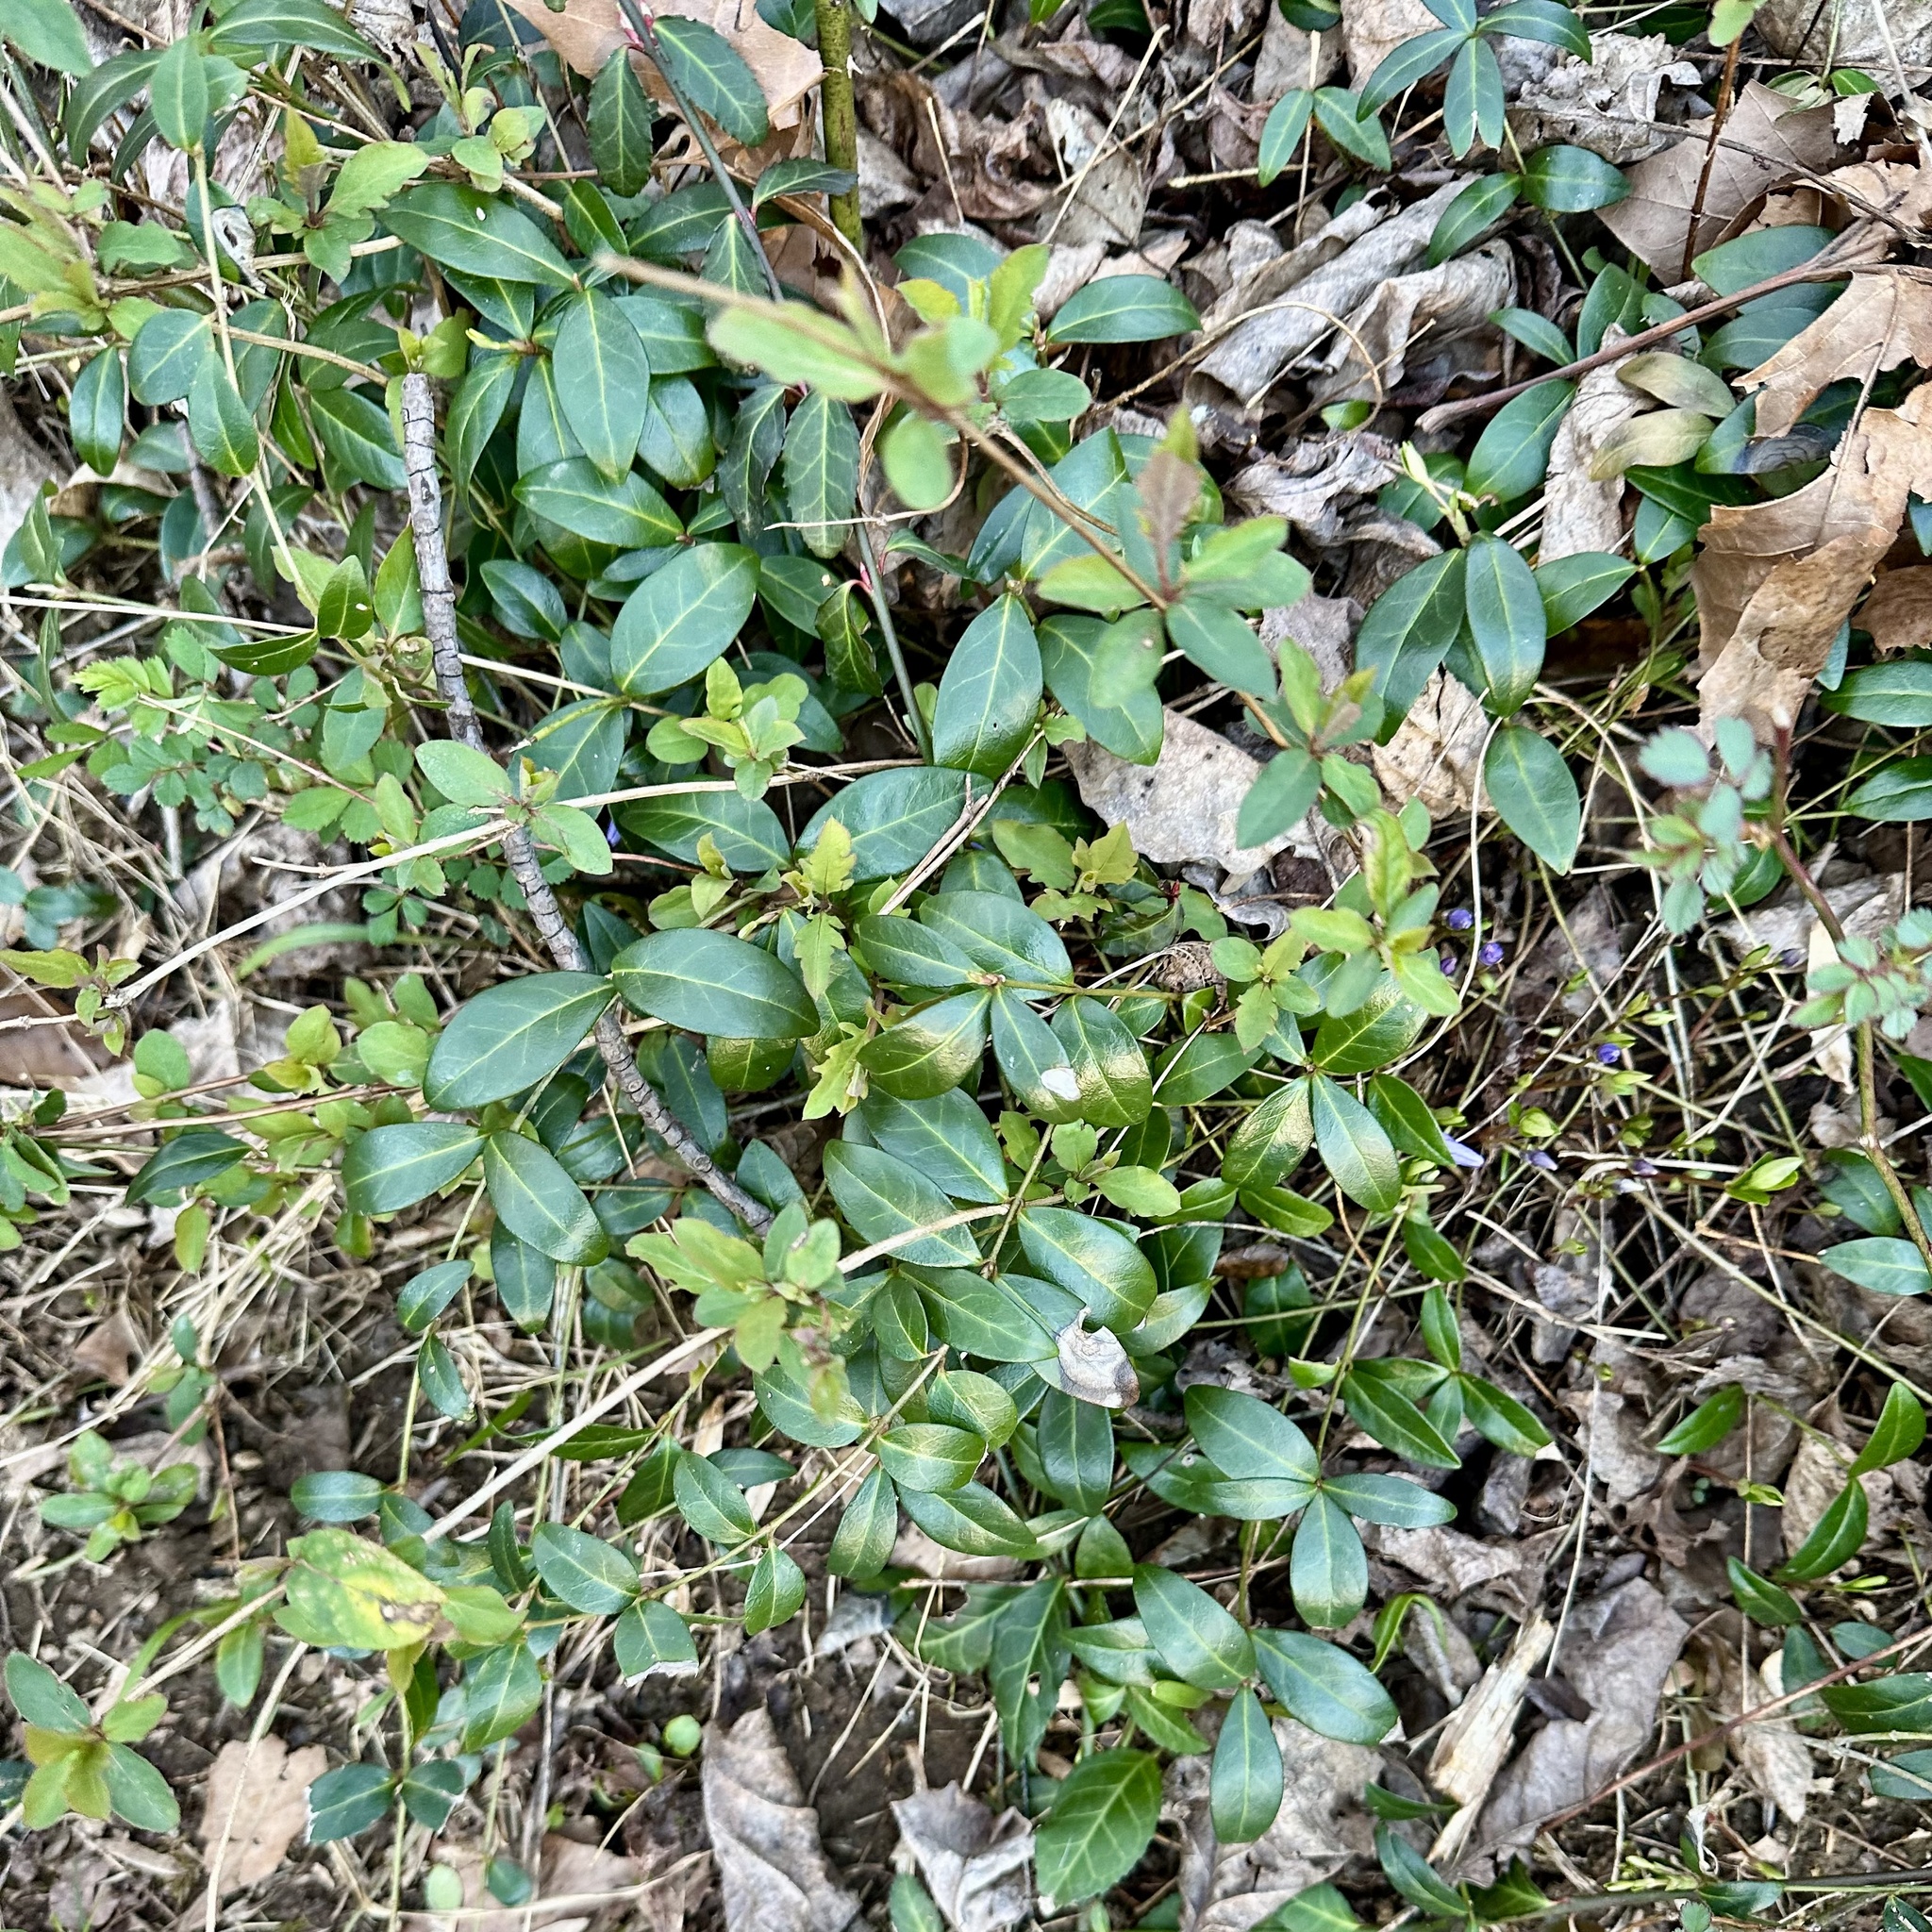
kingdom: Plantae
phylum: Tracheophyta
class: Magnoliopsida
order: Gentianales
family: Apocynaceae
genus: Vinca
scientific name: Vinca minor
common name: Lesser periwinkle
